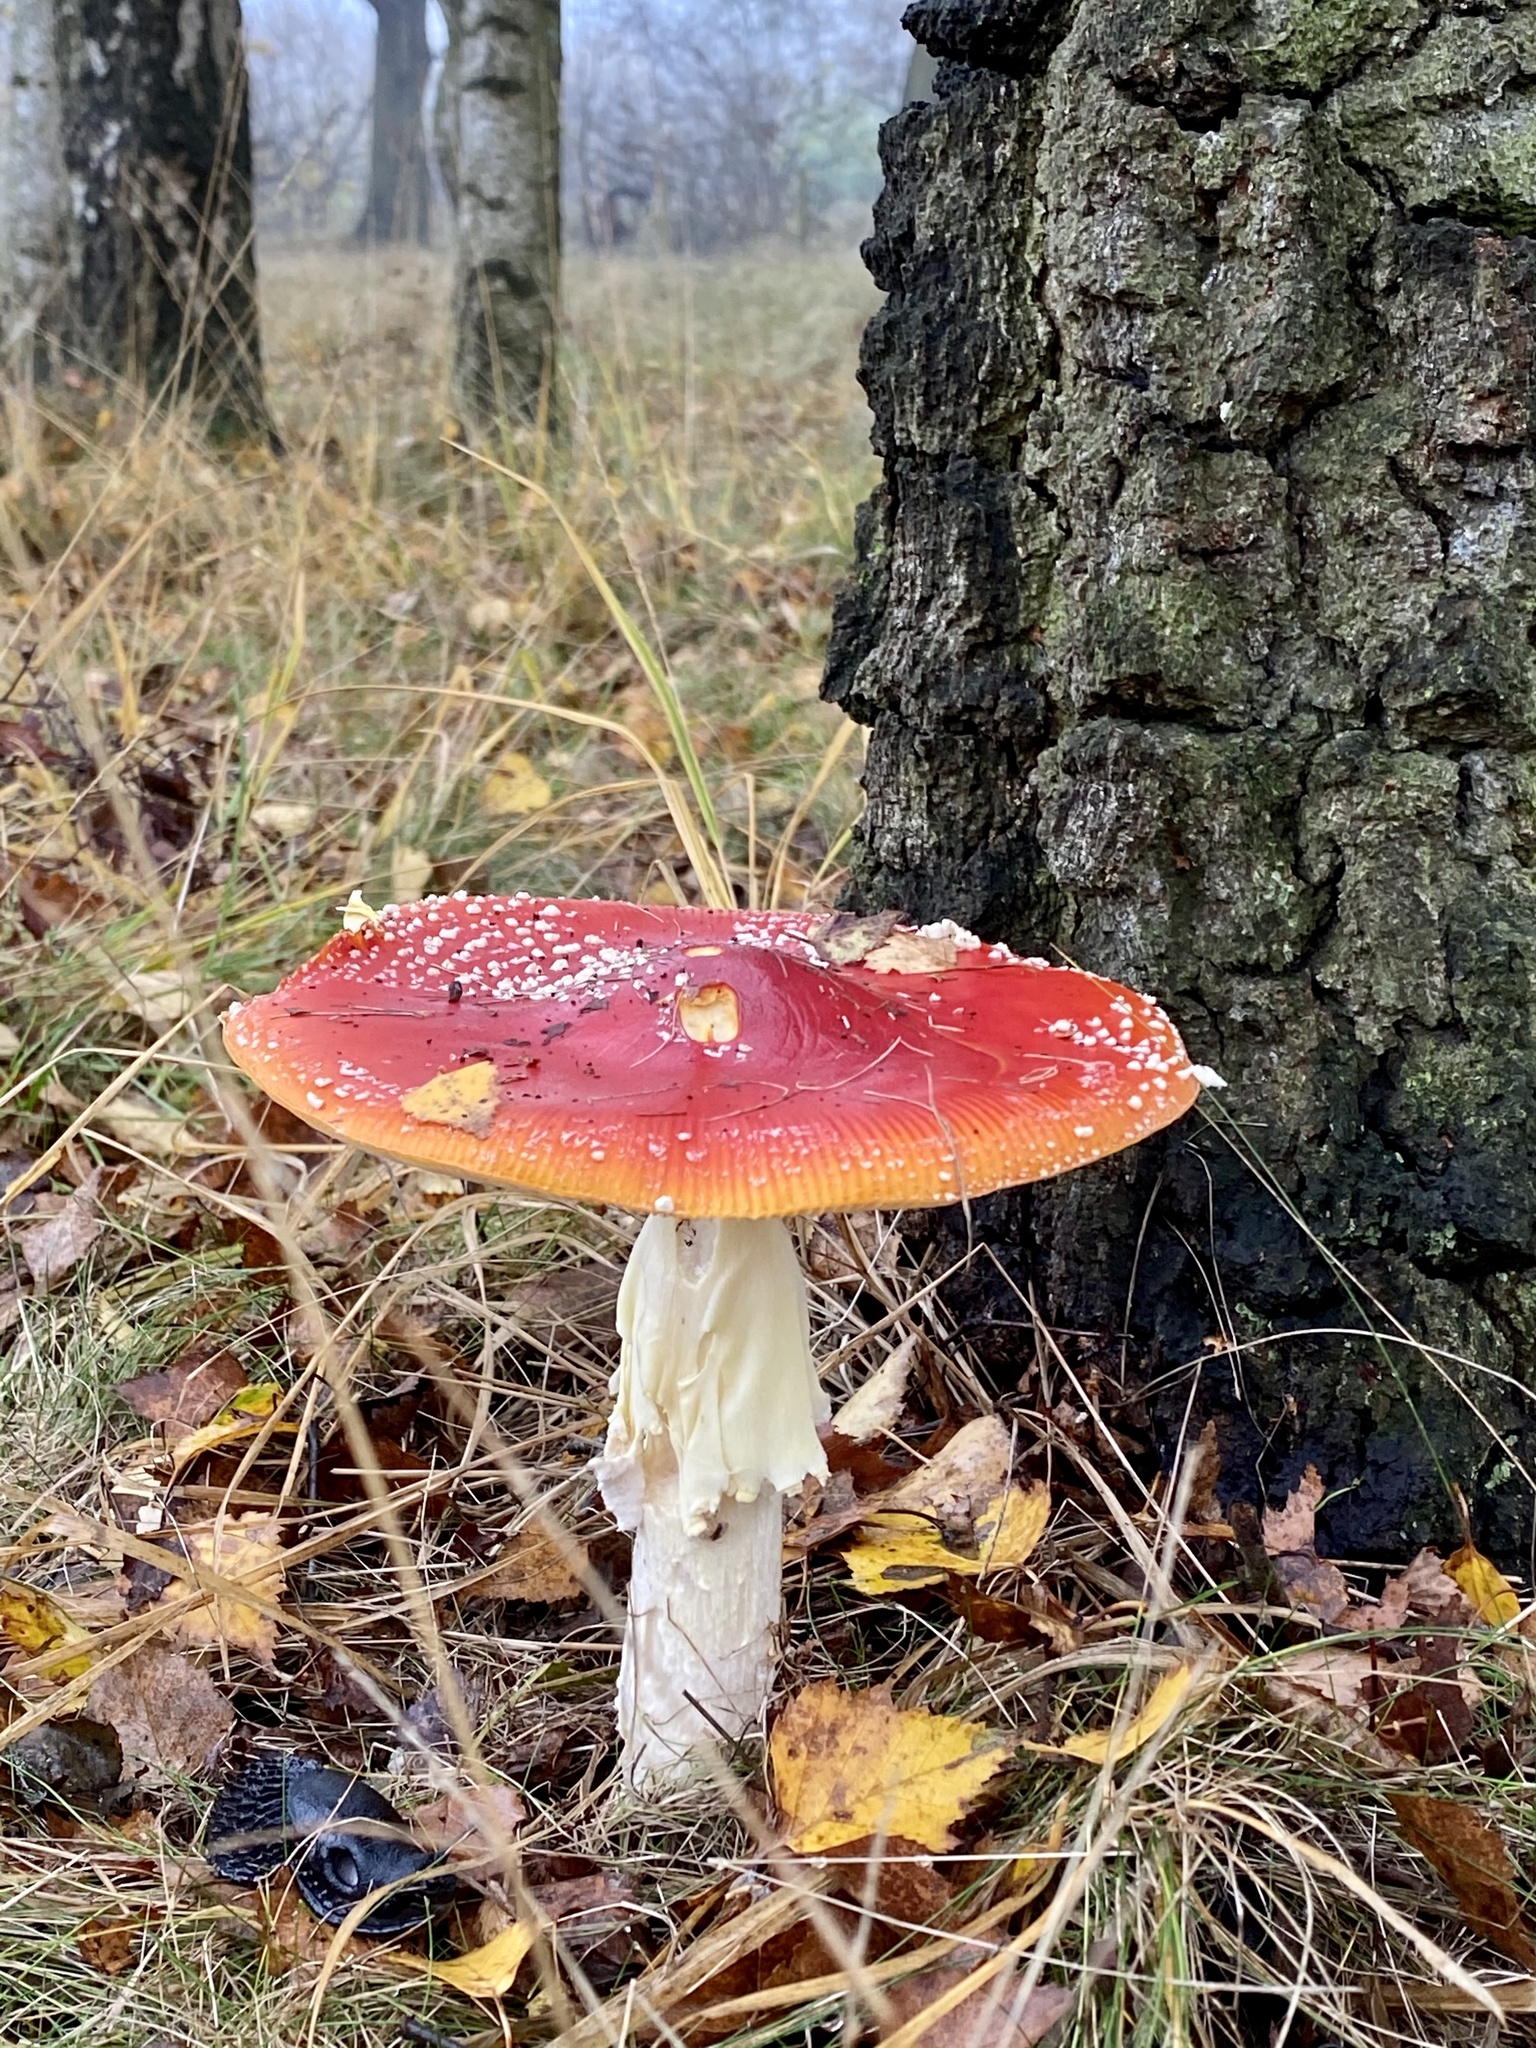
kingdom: Fungi
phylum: Basidiomycota
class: Agaricomycetes
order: Agaricales
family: Amanitaceae
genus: Amanita
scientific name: Amanita muscaria
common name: Fly agaric
